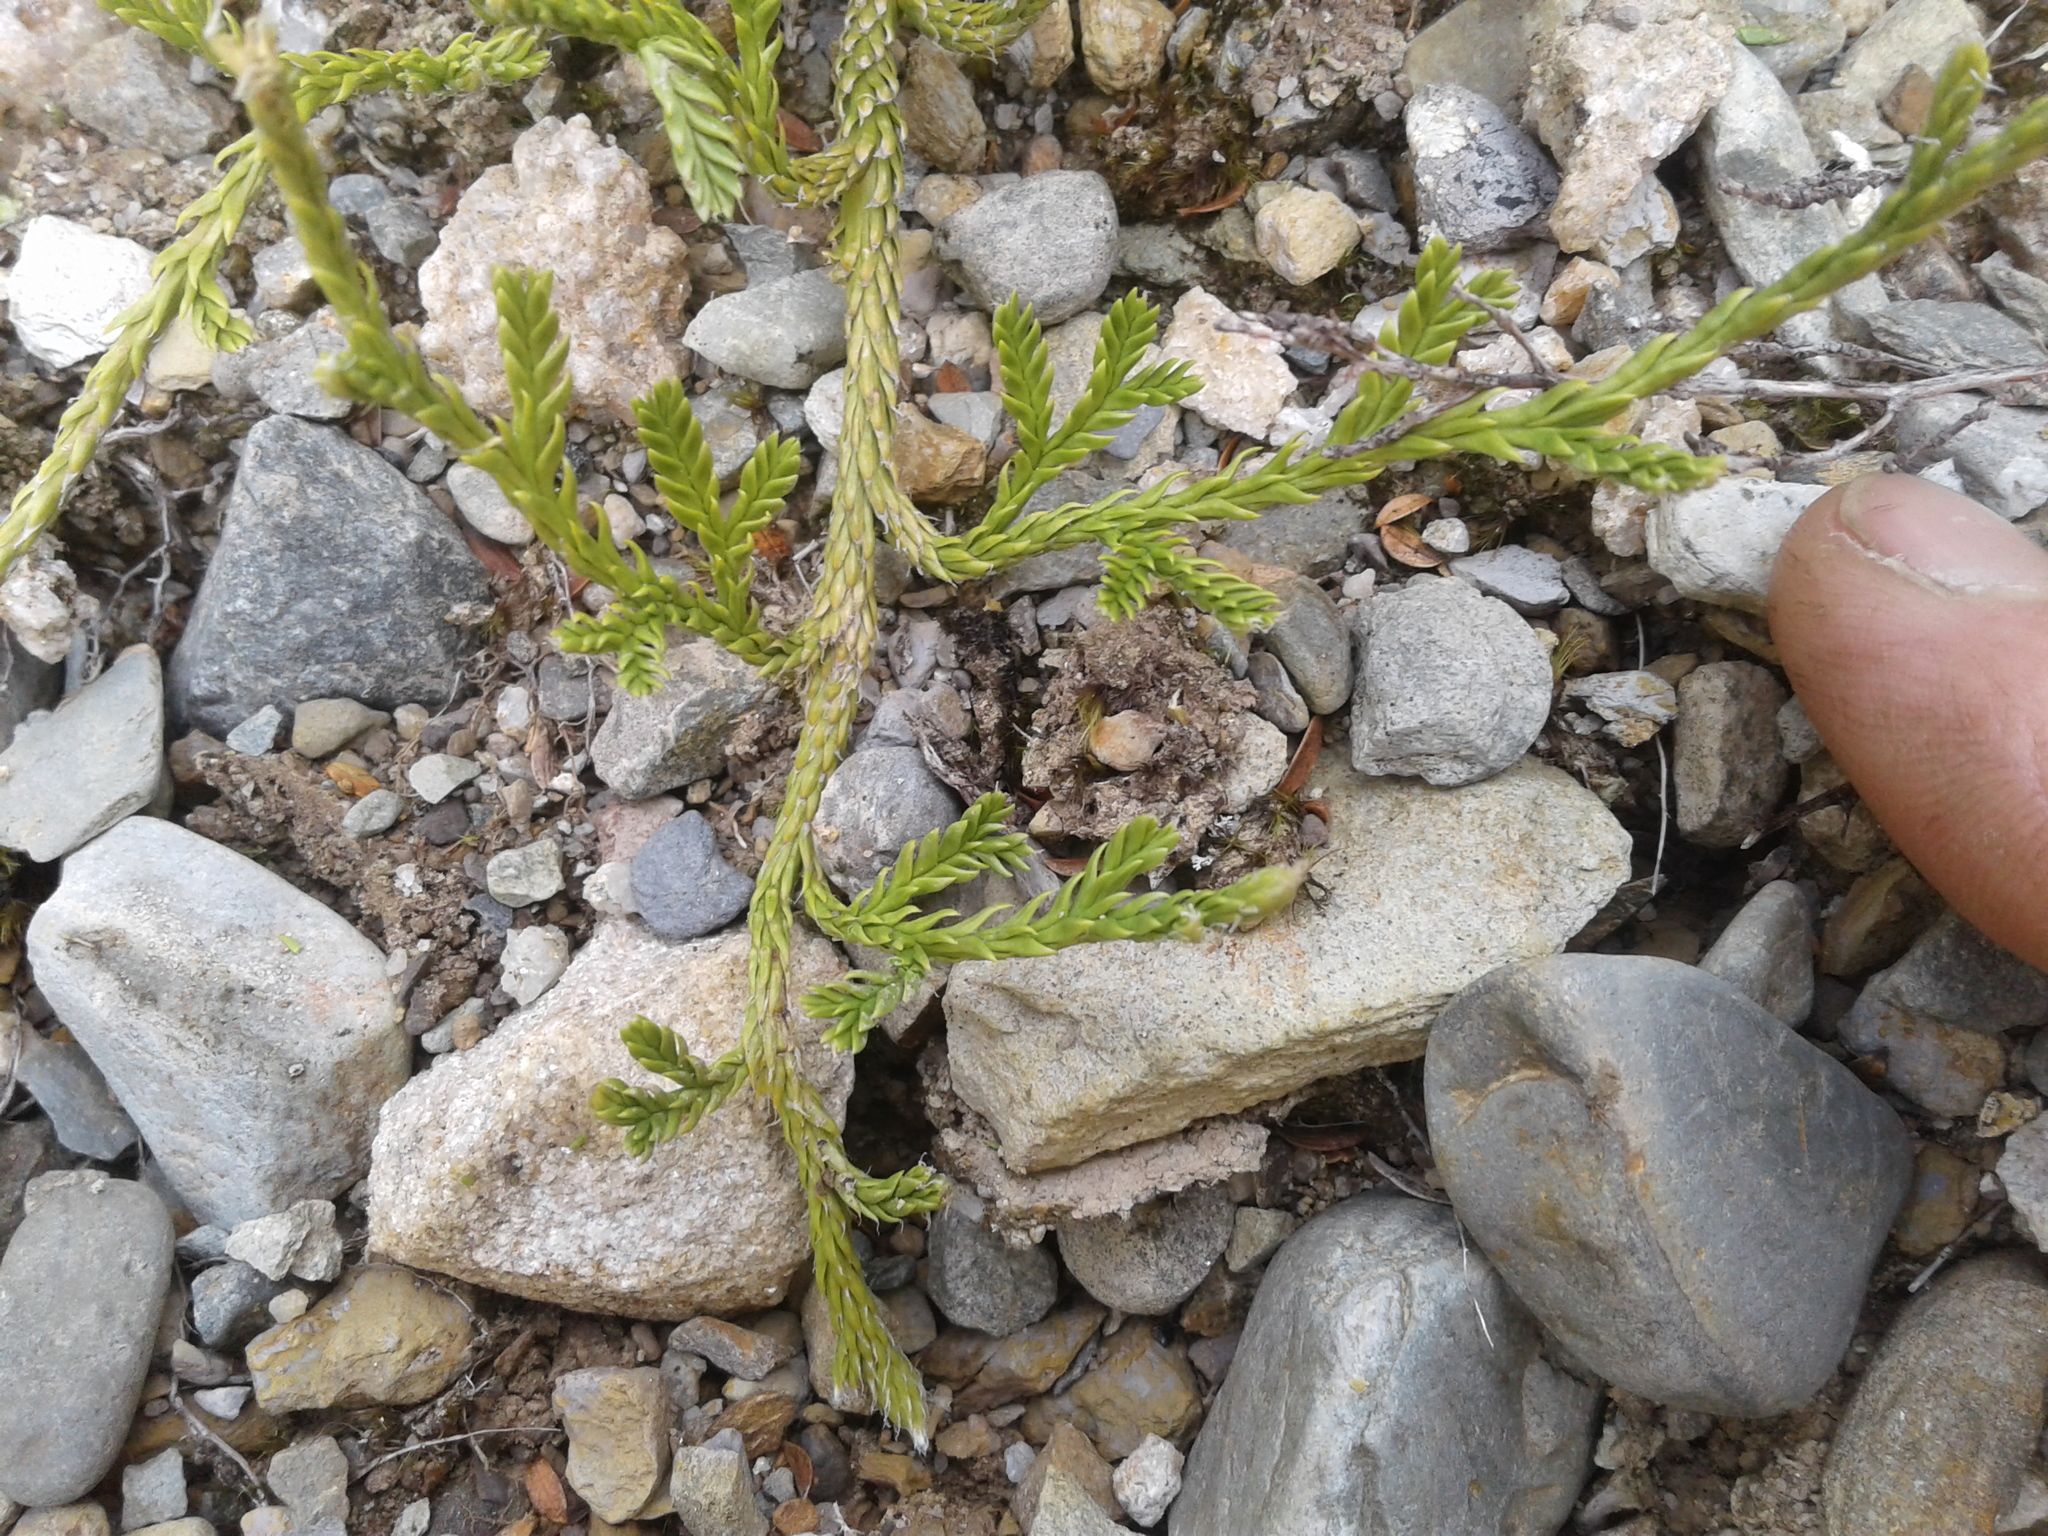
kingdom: Plantae
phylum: Tracheophyta
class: Lycopodiopsida
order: Lycopodiales
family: Lycopodiaceae
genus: Diphasium
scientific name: Diphasium scariosum
